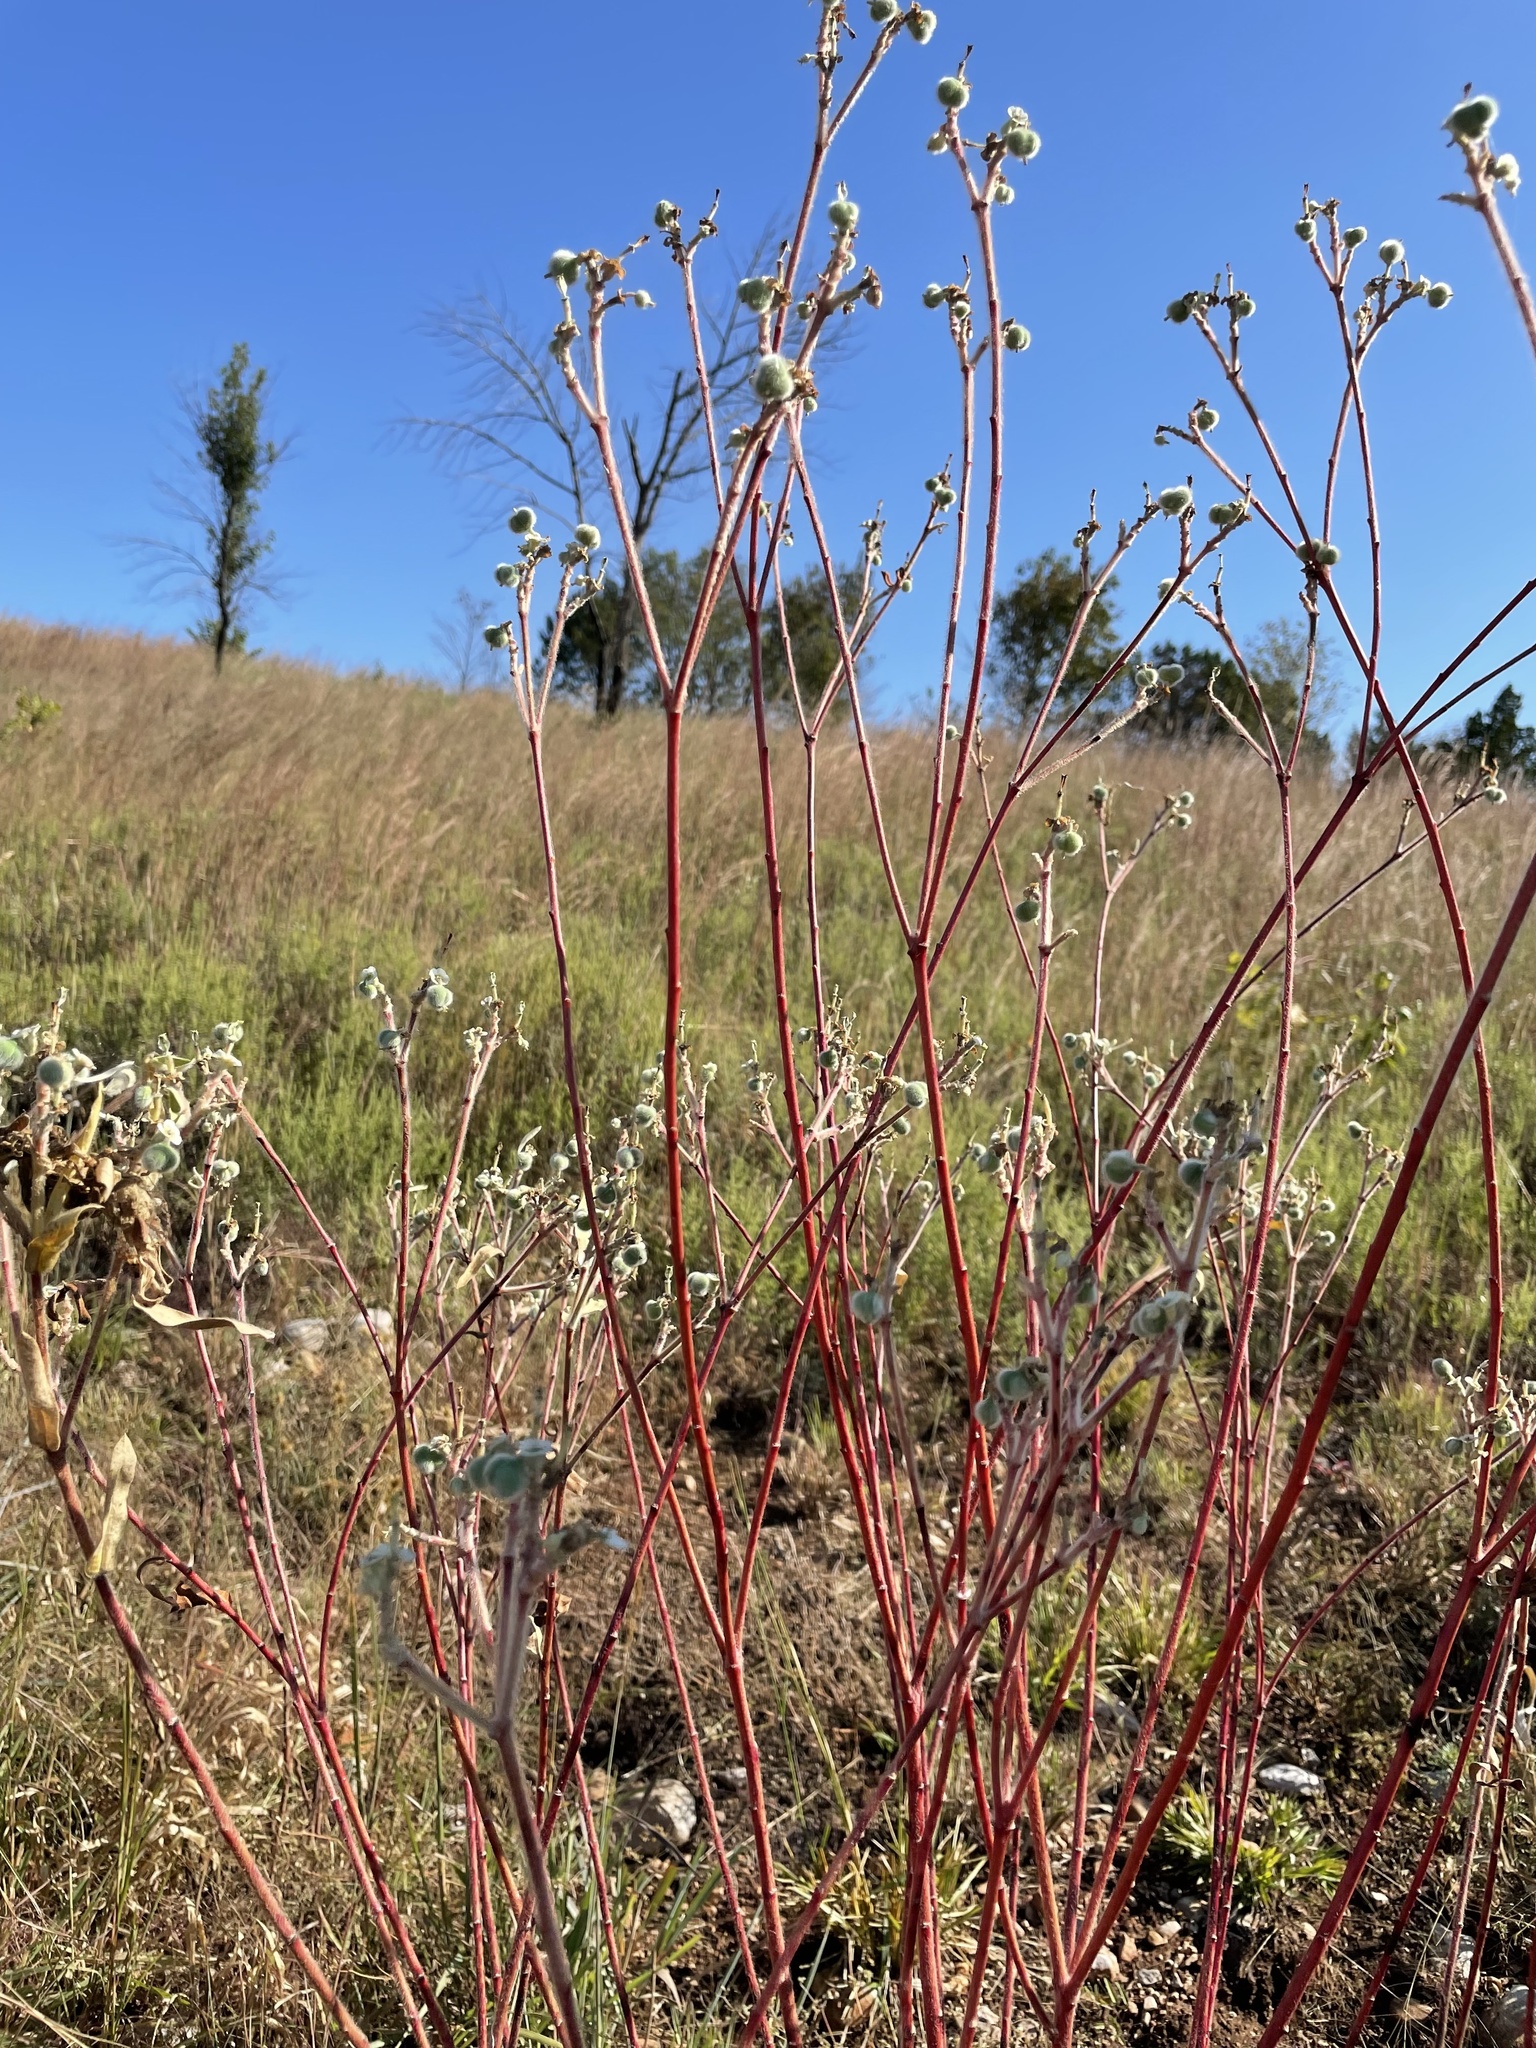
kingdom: Plantae
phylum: Tracheophyta
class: Magnoliopsida
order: Malpighiales
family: Euphorbiaceae
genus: Euphorbia
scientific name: Euphorbia bicolor
